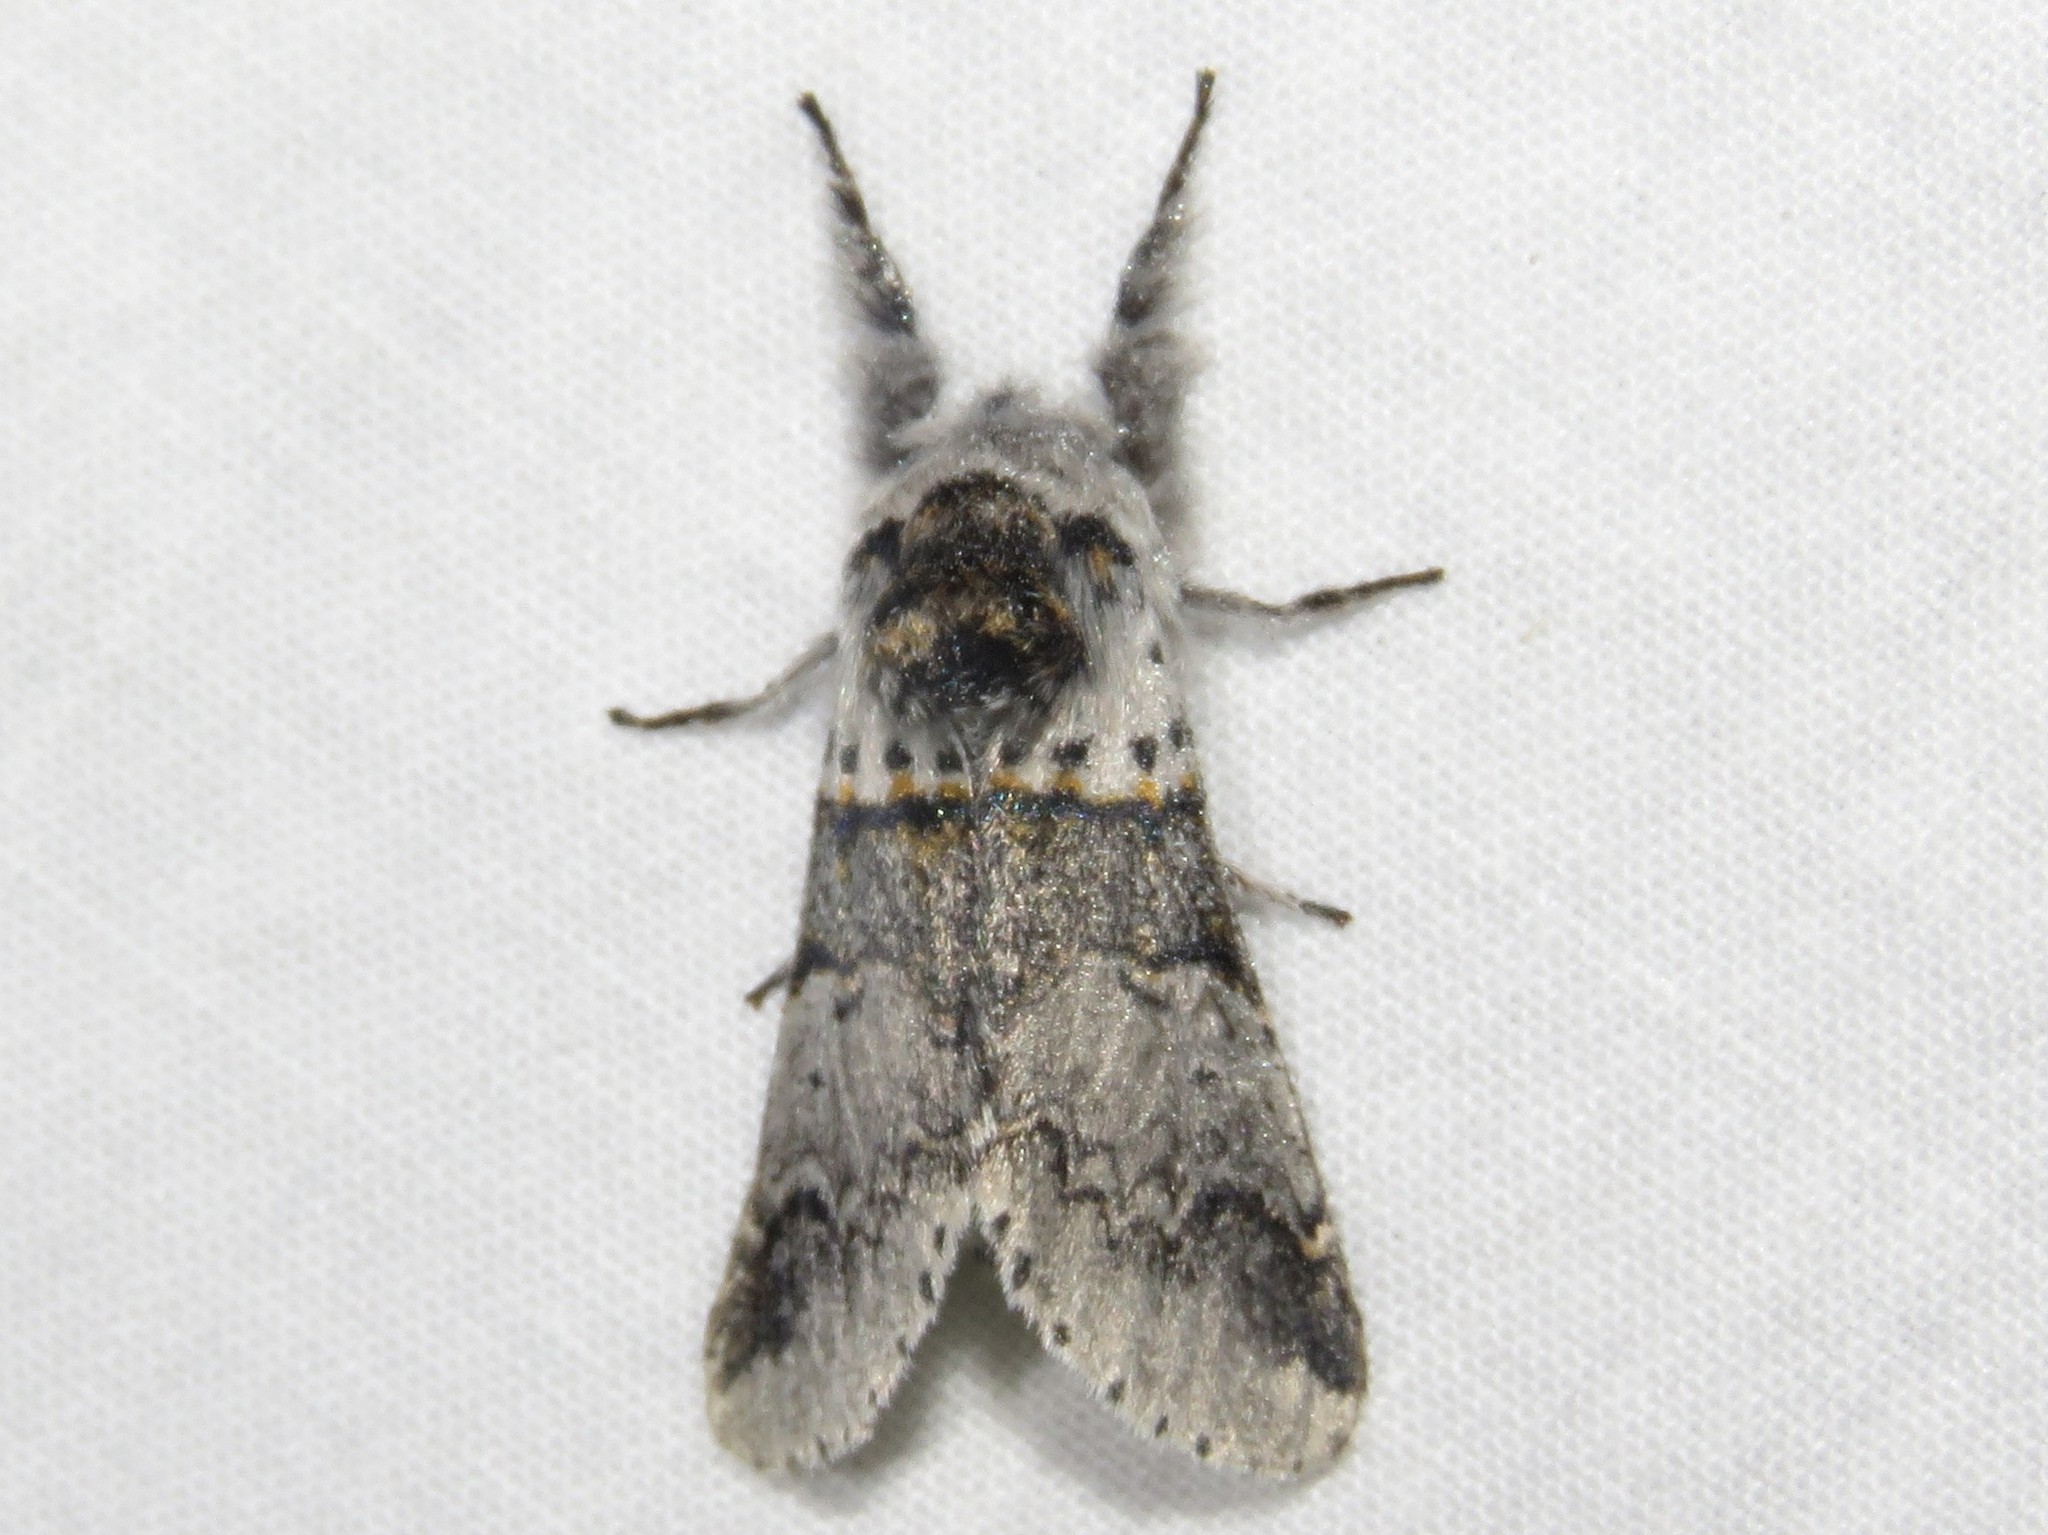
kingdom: Animalia
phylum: Arthropoda
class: Insecta
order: Lepidoptera
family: Notodontidae
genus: Furcula
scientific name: Furcula occidentalis
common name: Western furcula moth
